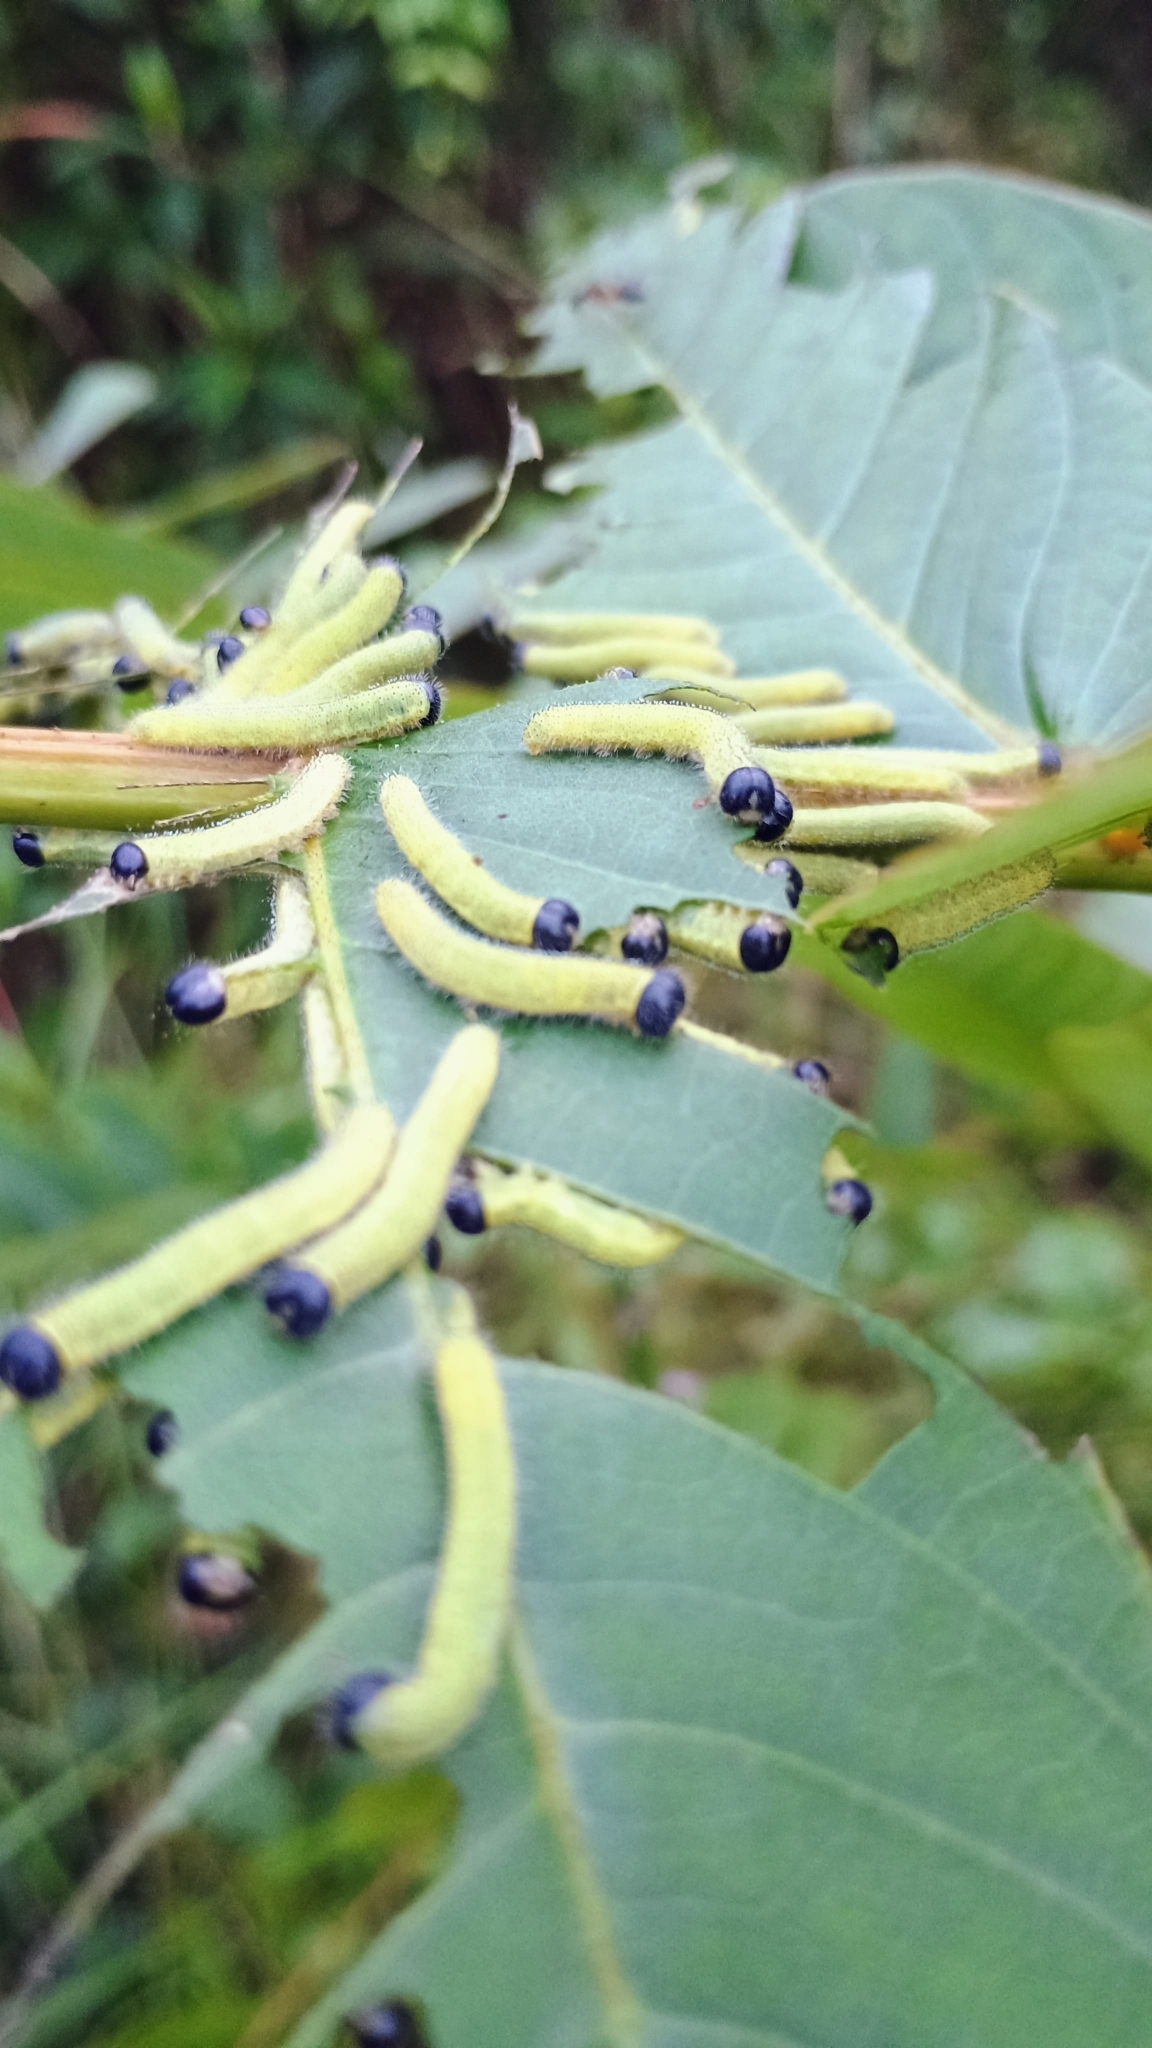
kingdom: Animalia
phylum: Arthropoda
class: Insecta
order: Lepidoptera
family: Pieridae
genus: Eurema
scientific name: Eurema blanda
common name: Three-spot grass yellow
